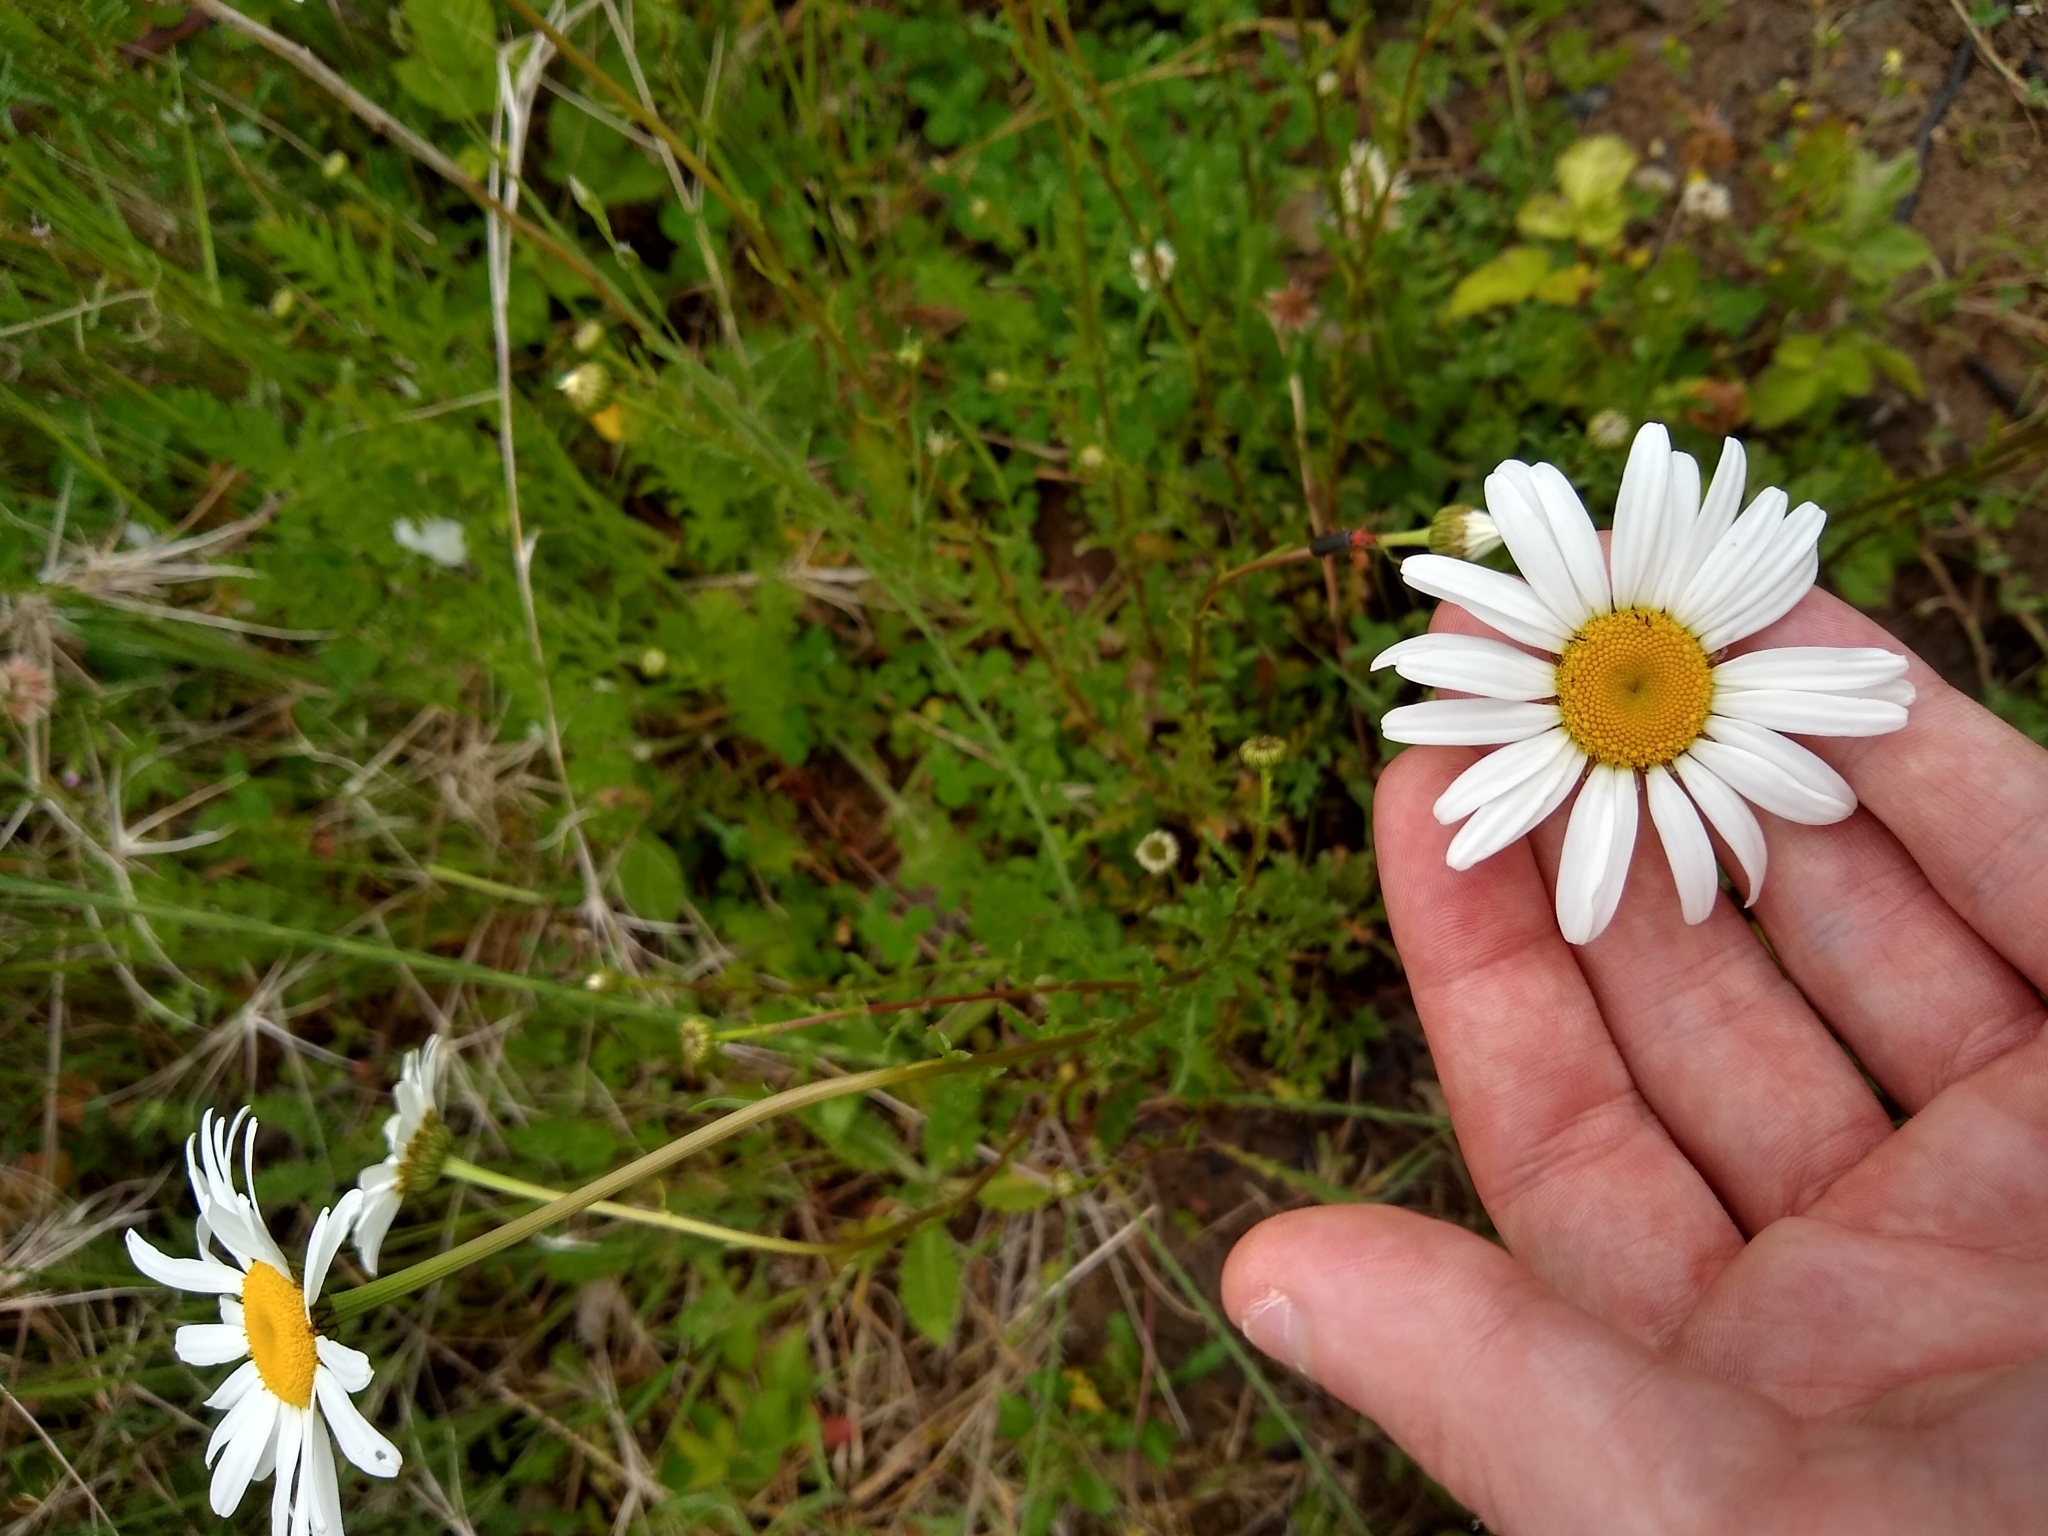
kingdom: Plantae
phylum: Tracheophyta
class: Magnoliopsida
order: Asterales
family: Asteraceae
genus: Leucanthemum
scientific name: Leucanthemum vulgare
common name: Oxeye daisy
